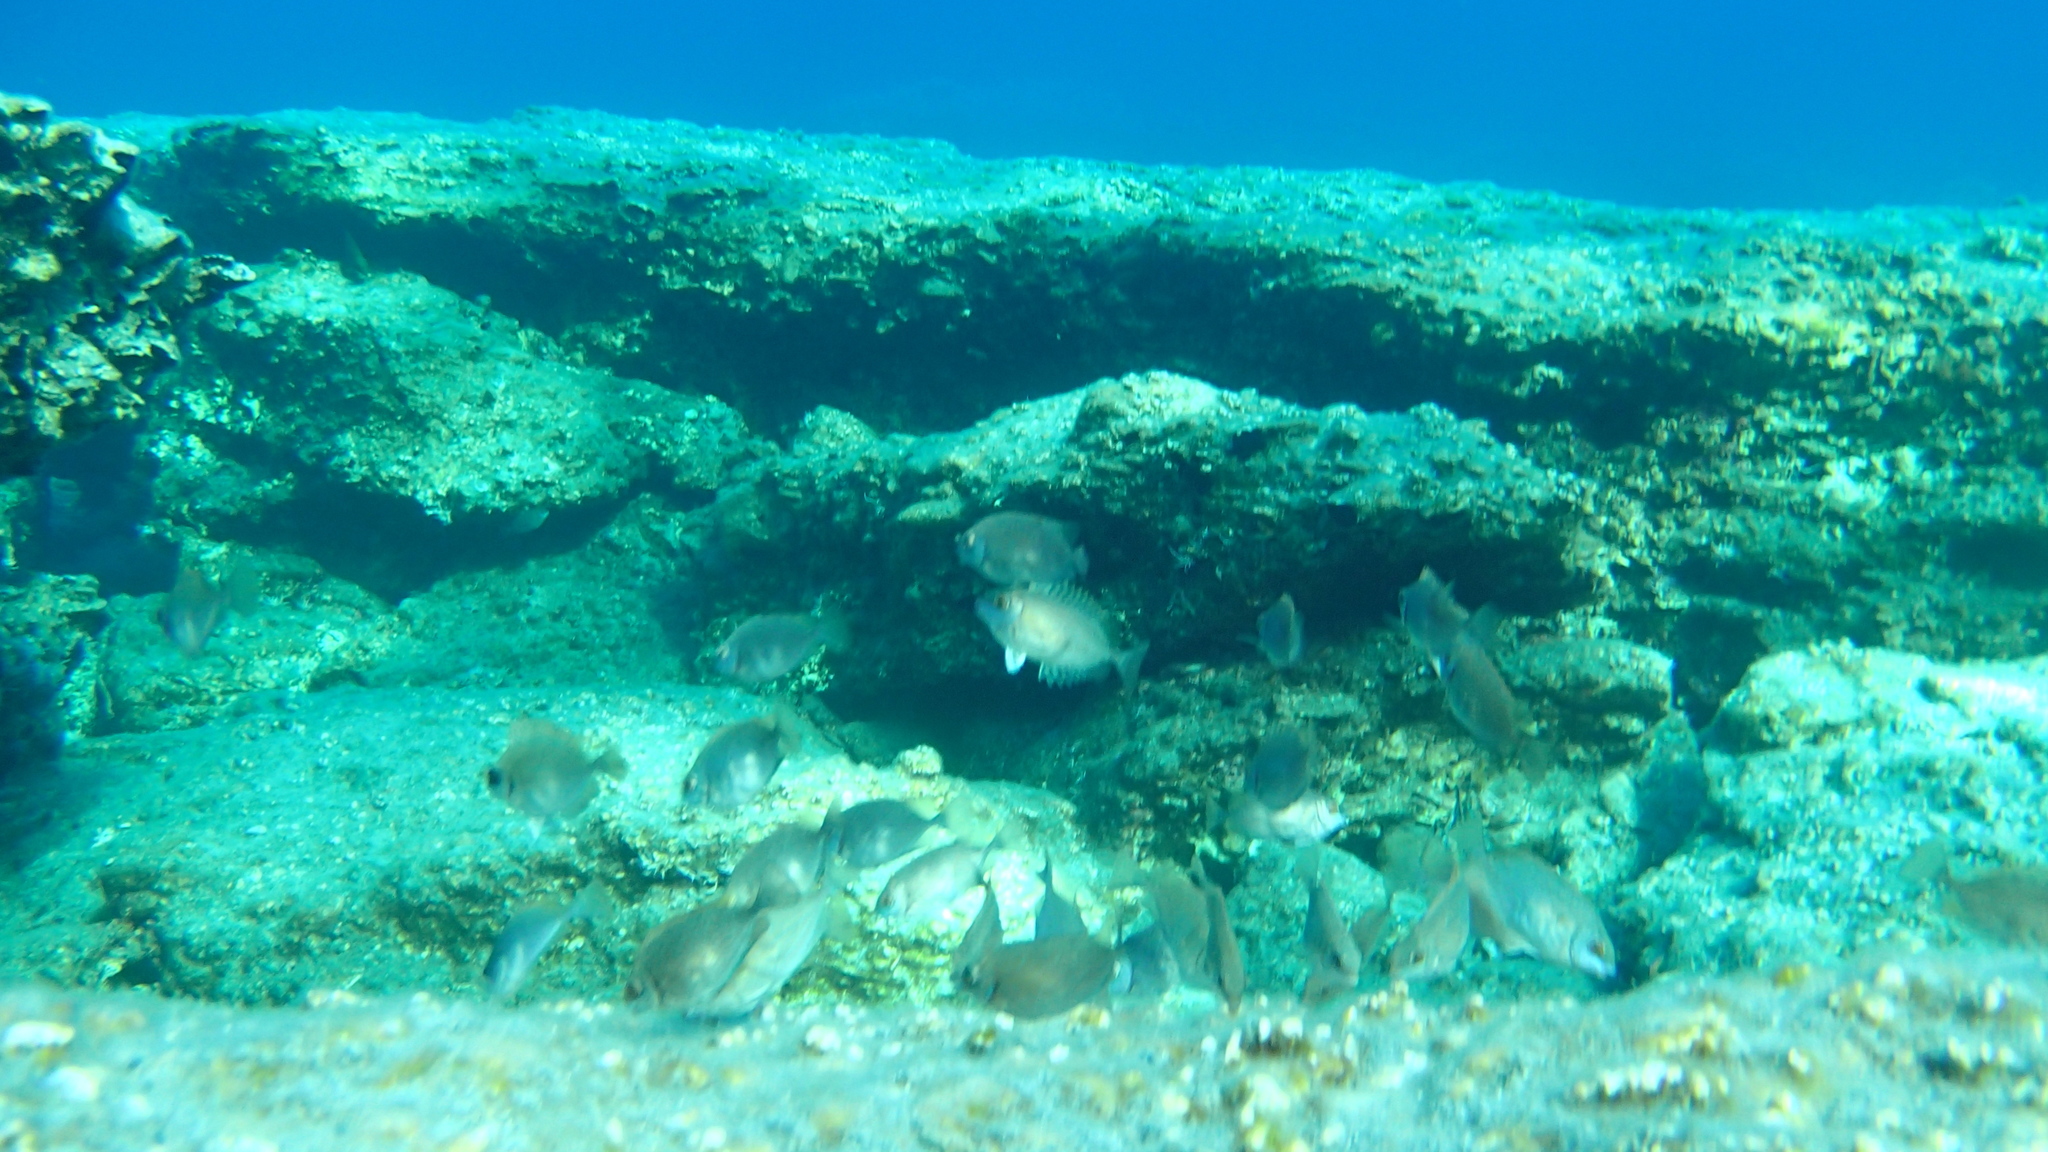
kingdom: Animalia
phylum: Chordata
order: Perciformes
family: Siganidae
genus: Siganus
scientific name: Siganus
